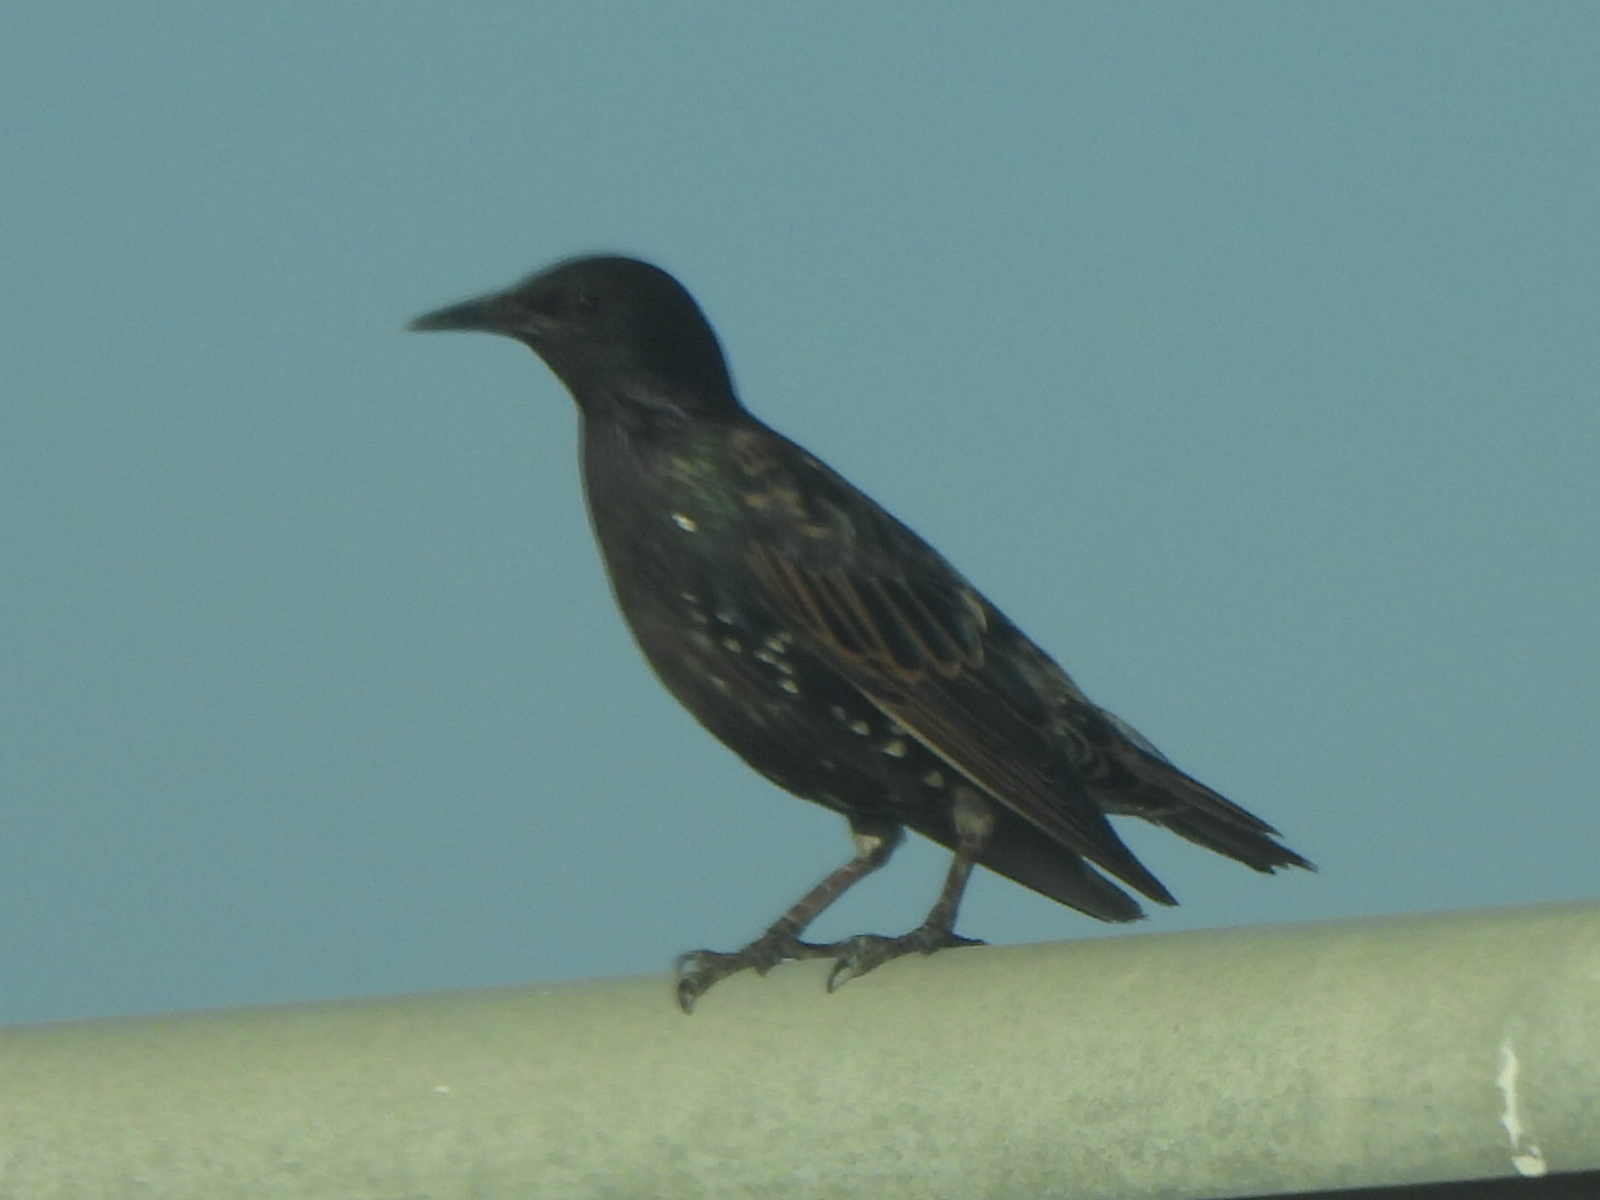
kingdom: Animalia
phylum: Chordata
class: Aves
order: Passeriformes
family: Sturnidae
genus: Sturnus
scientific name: Sturnus vulgaris
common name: Common starling
